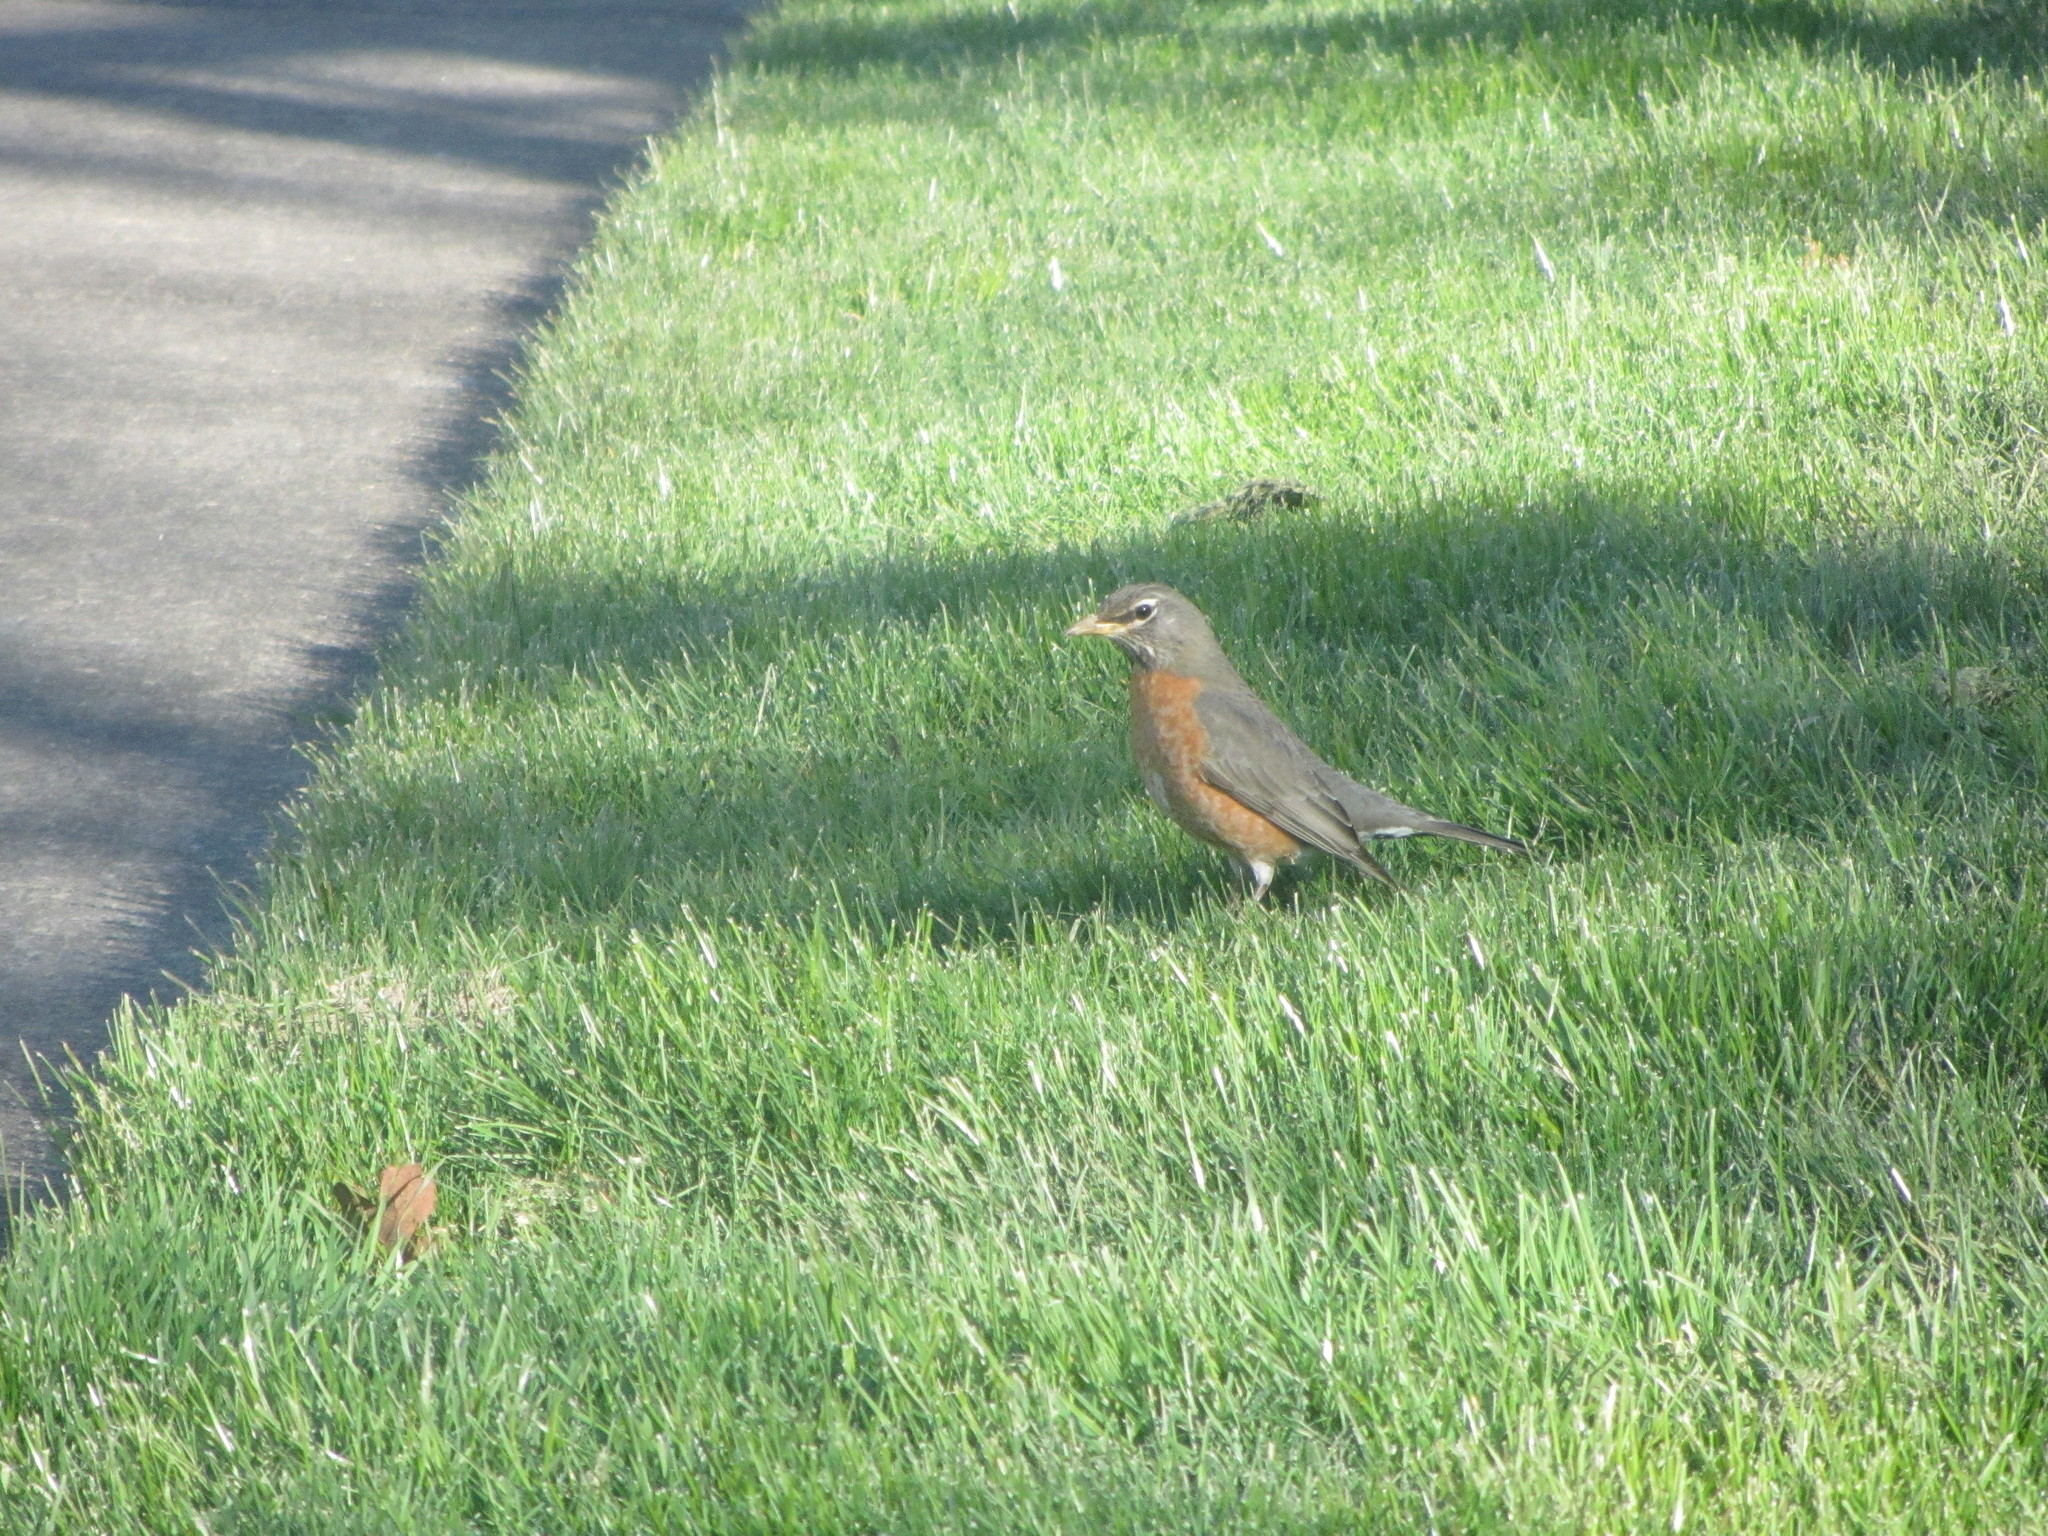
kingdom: Animalia
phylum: Chordata
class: Aves
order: Passeriformes
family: Turdidae
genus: Turdus
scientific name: Turdus migratorius
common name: American robin
